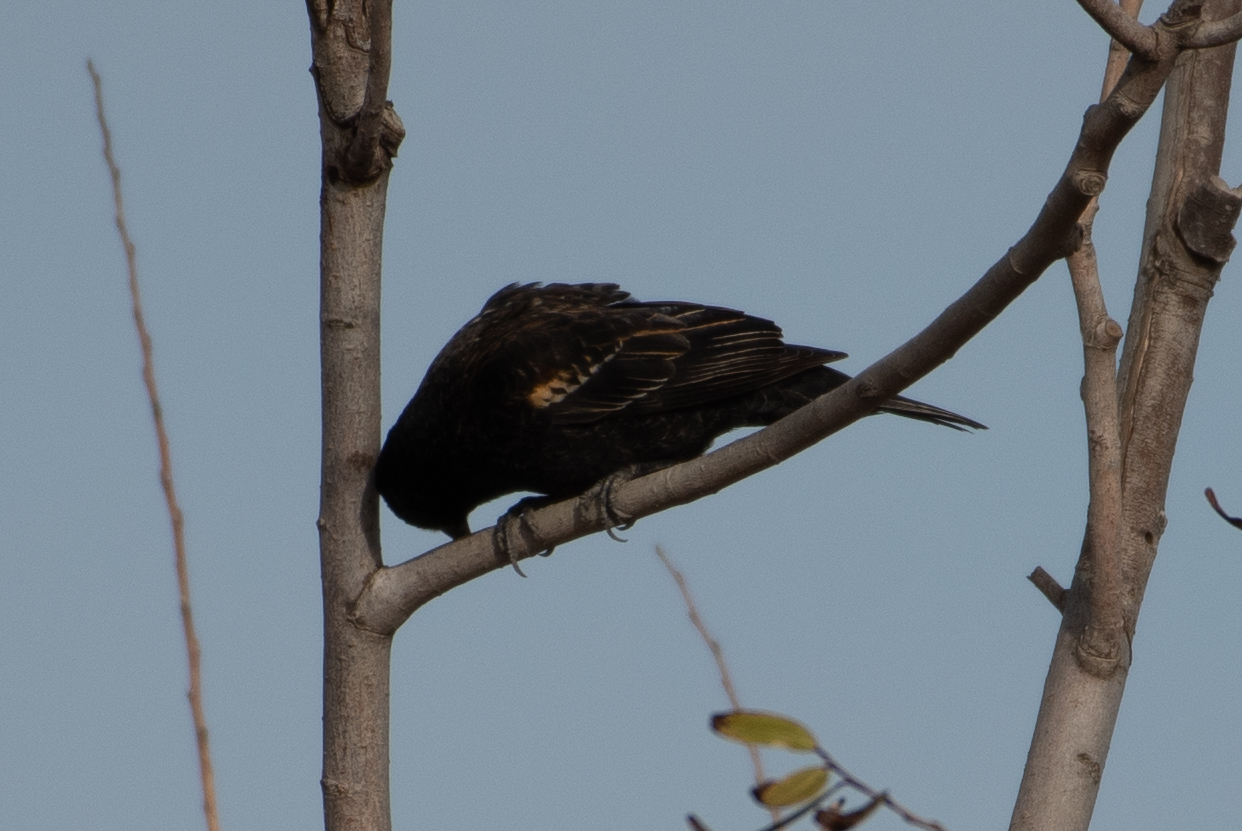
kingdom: Animalia
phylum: Chordata
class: Aves
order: Passeriformes
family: Icteridae
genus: Agelaius
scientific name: Agelaius phoeniceus
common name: Red-winged blackbird
